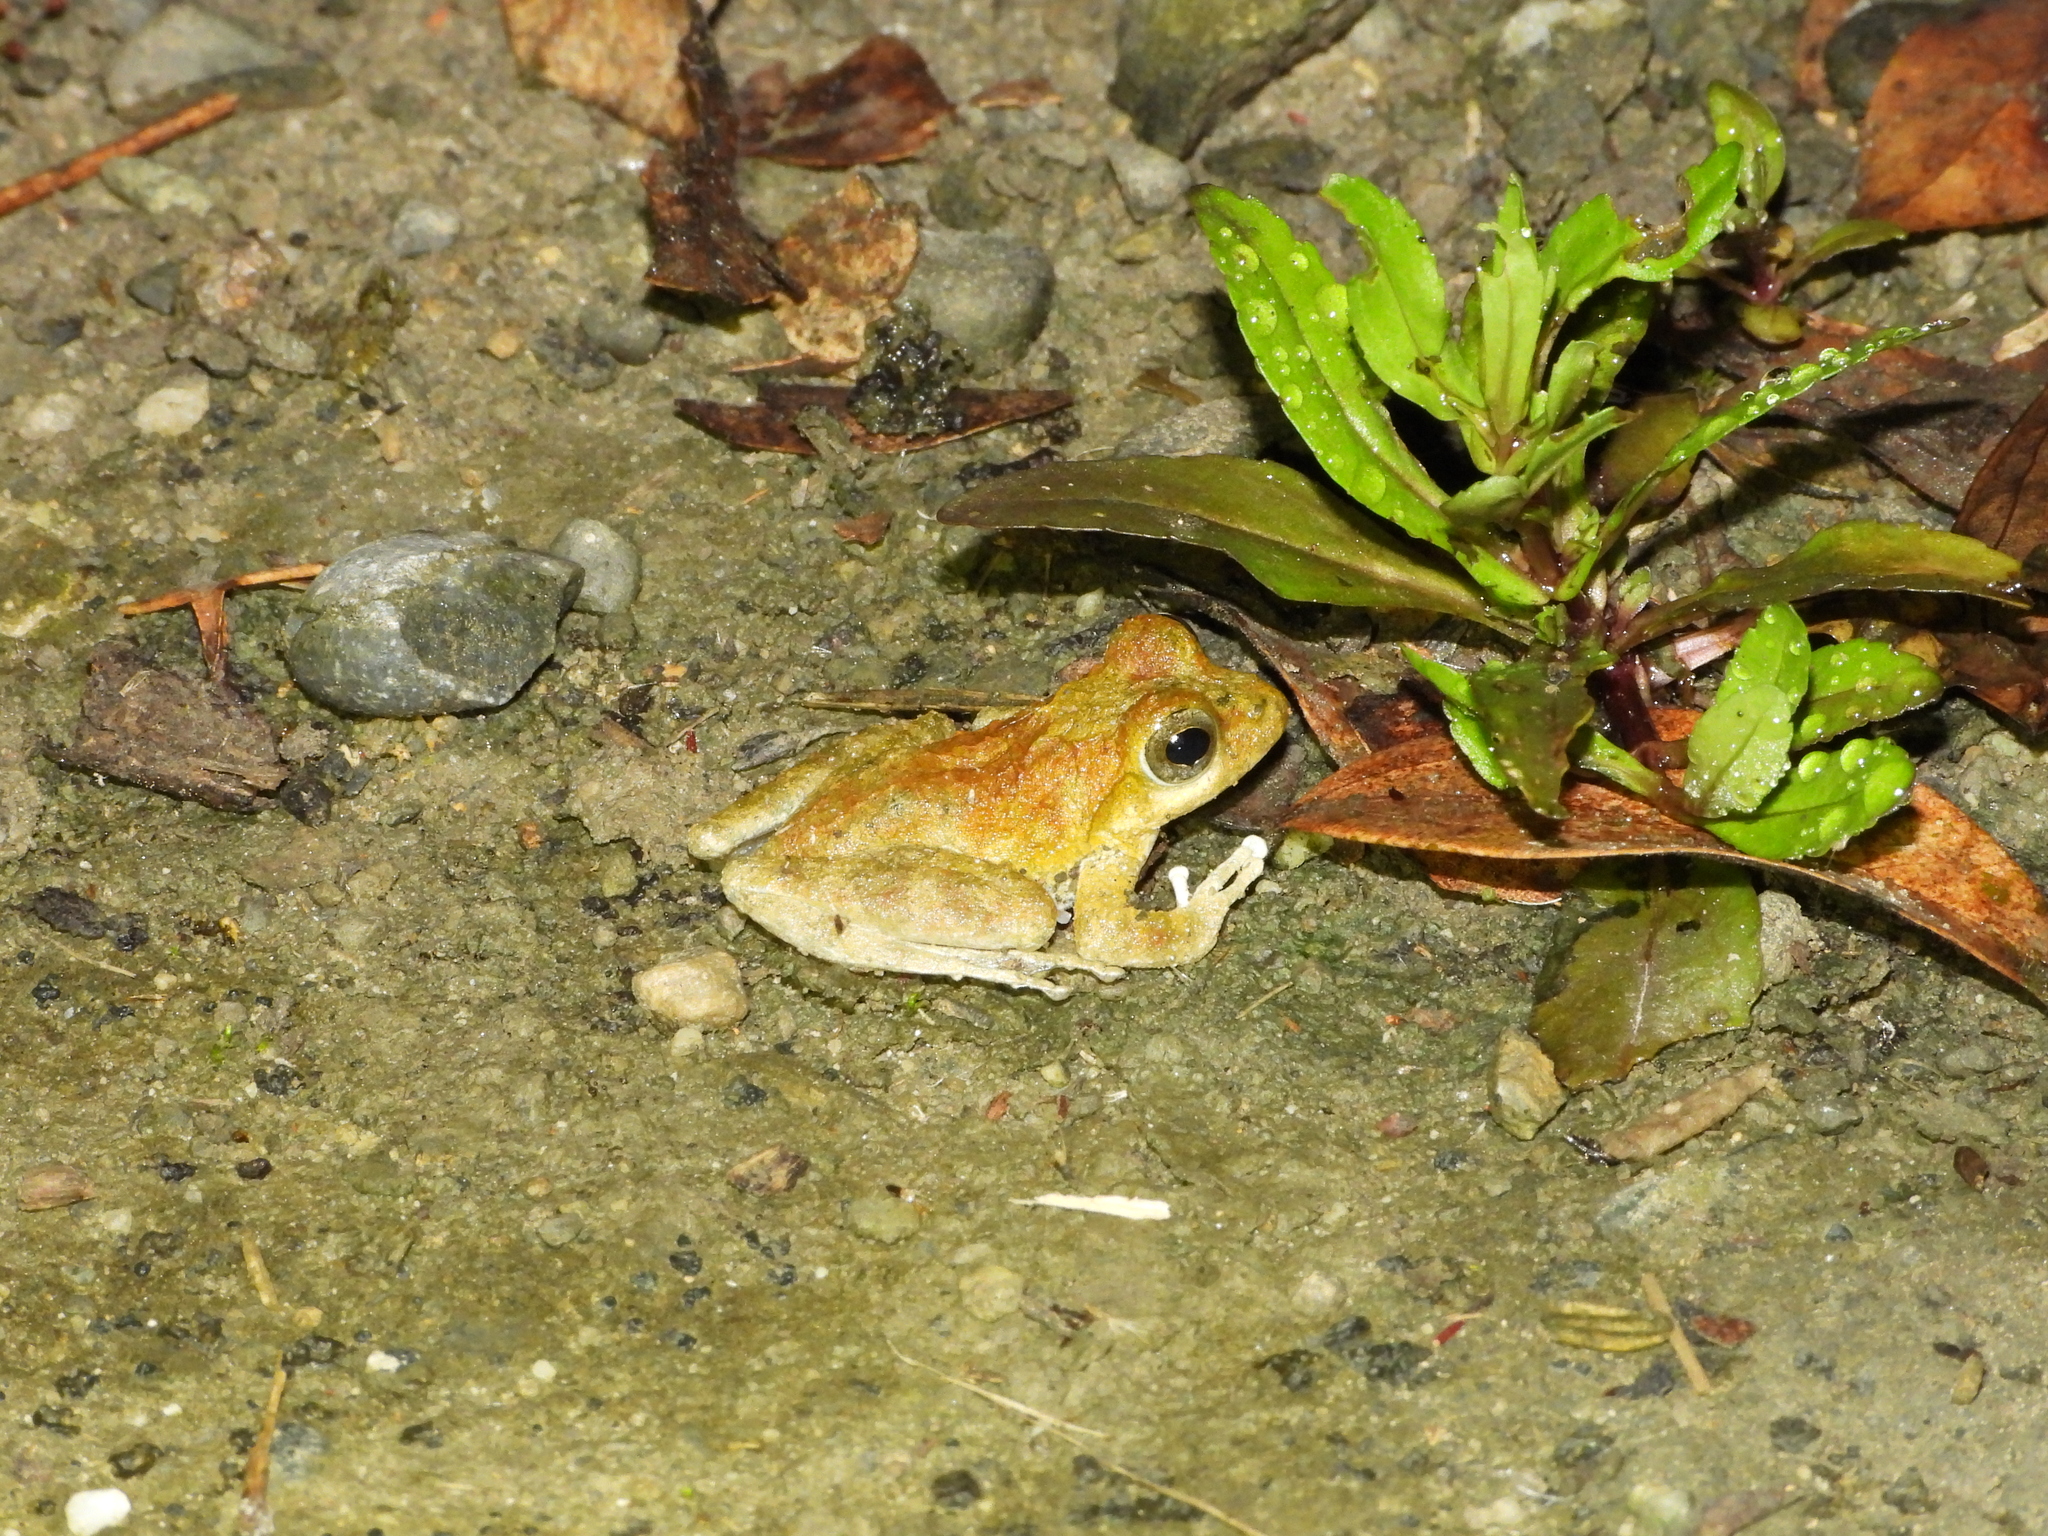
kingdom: Animalia
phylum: Chordata
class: Amphibia
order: Anura
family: Rhacophoridae
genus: Buergeria
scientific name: Buergeria otai
